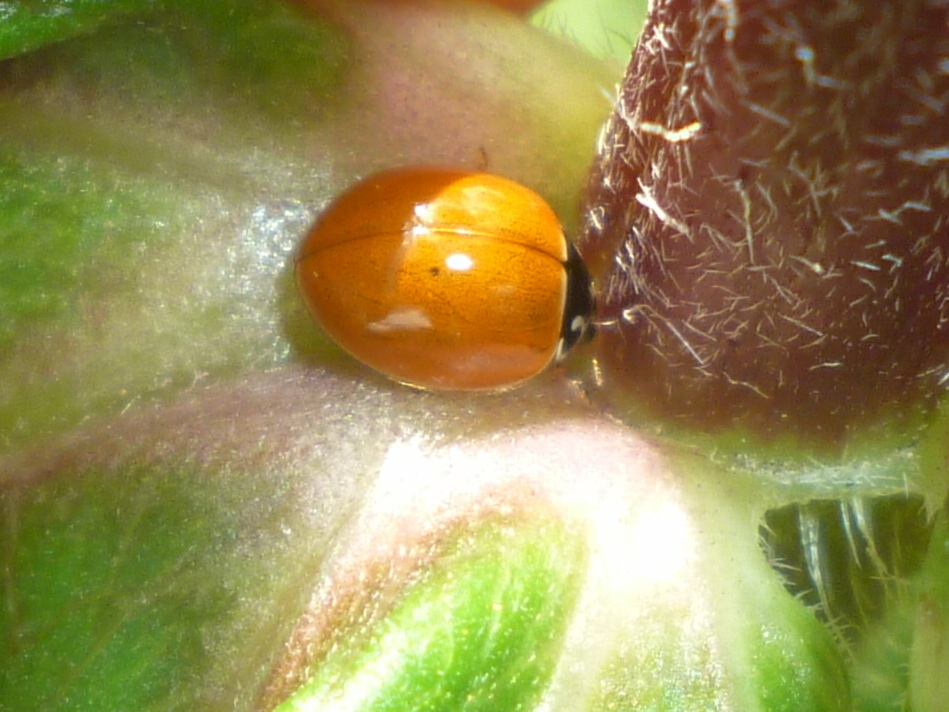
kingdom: Animalia
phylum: Arthropoda
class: Insecta
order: Coleoptera
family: Coccinellidae
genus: Cycloneda
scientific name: Cycloneda munda
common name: Polished lady beetle
